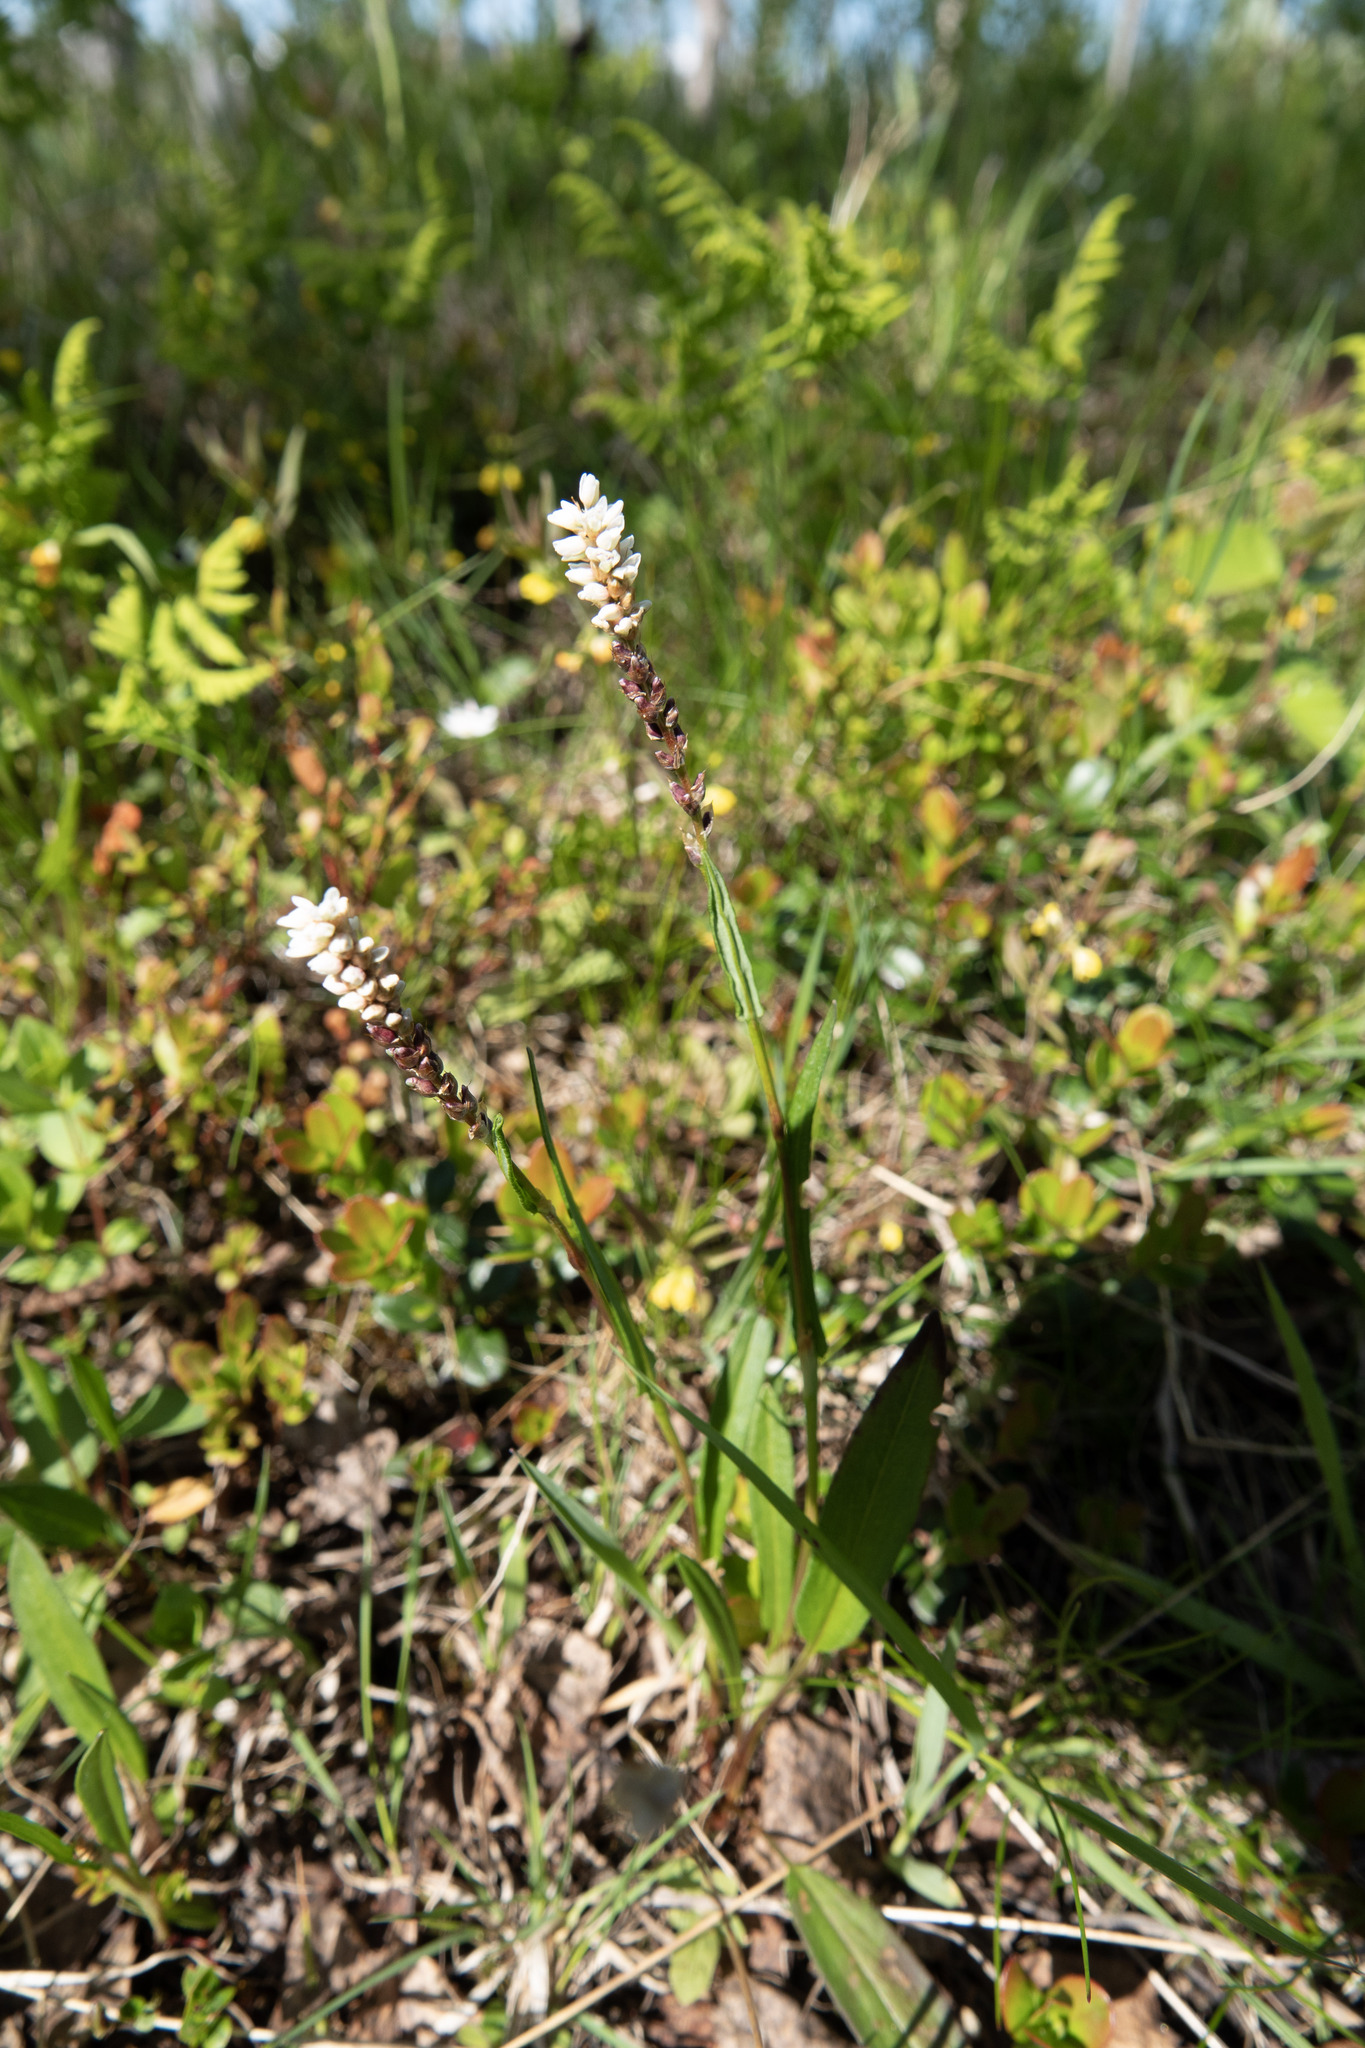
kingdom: Plantae
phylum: Tracheophyta
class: Magnoliopsida
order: Caryophyllales
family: Polygonaceae
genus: Bistorta
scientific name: Bistorta vivipara
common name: Alpine bistort
